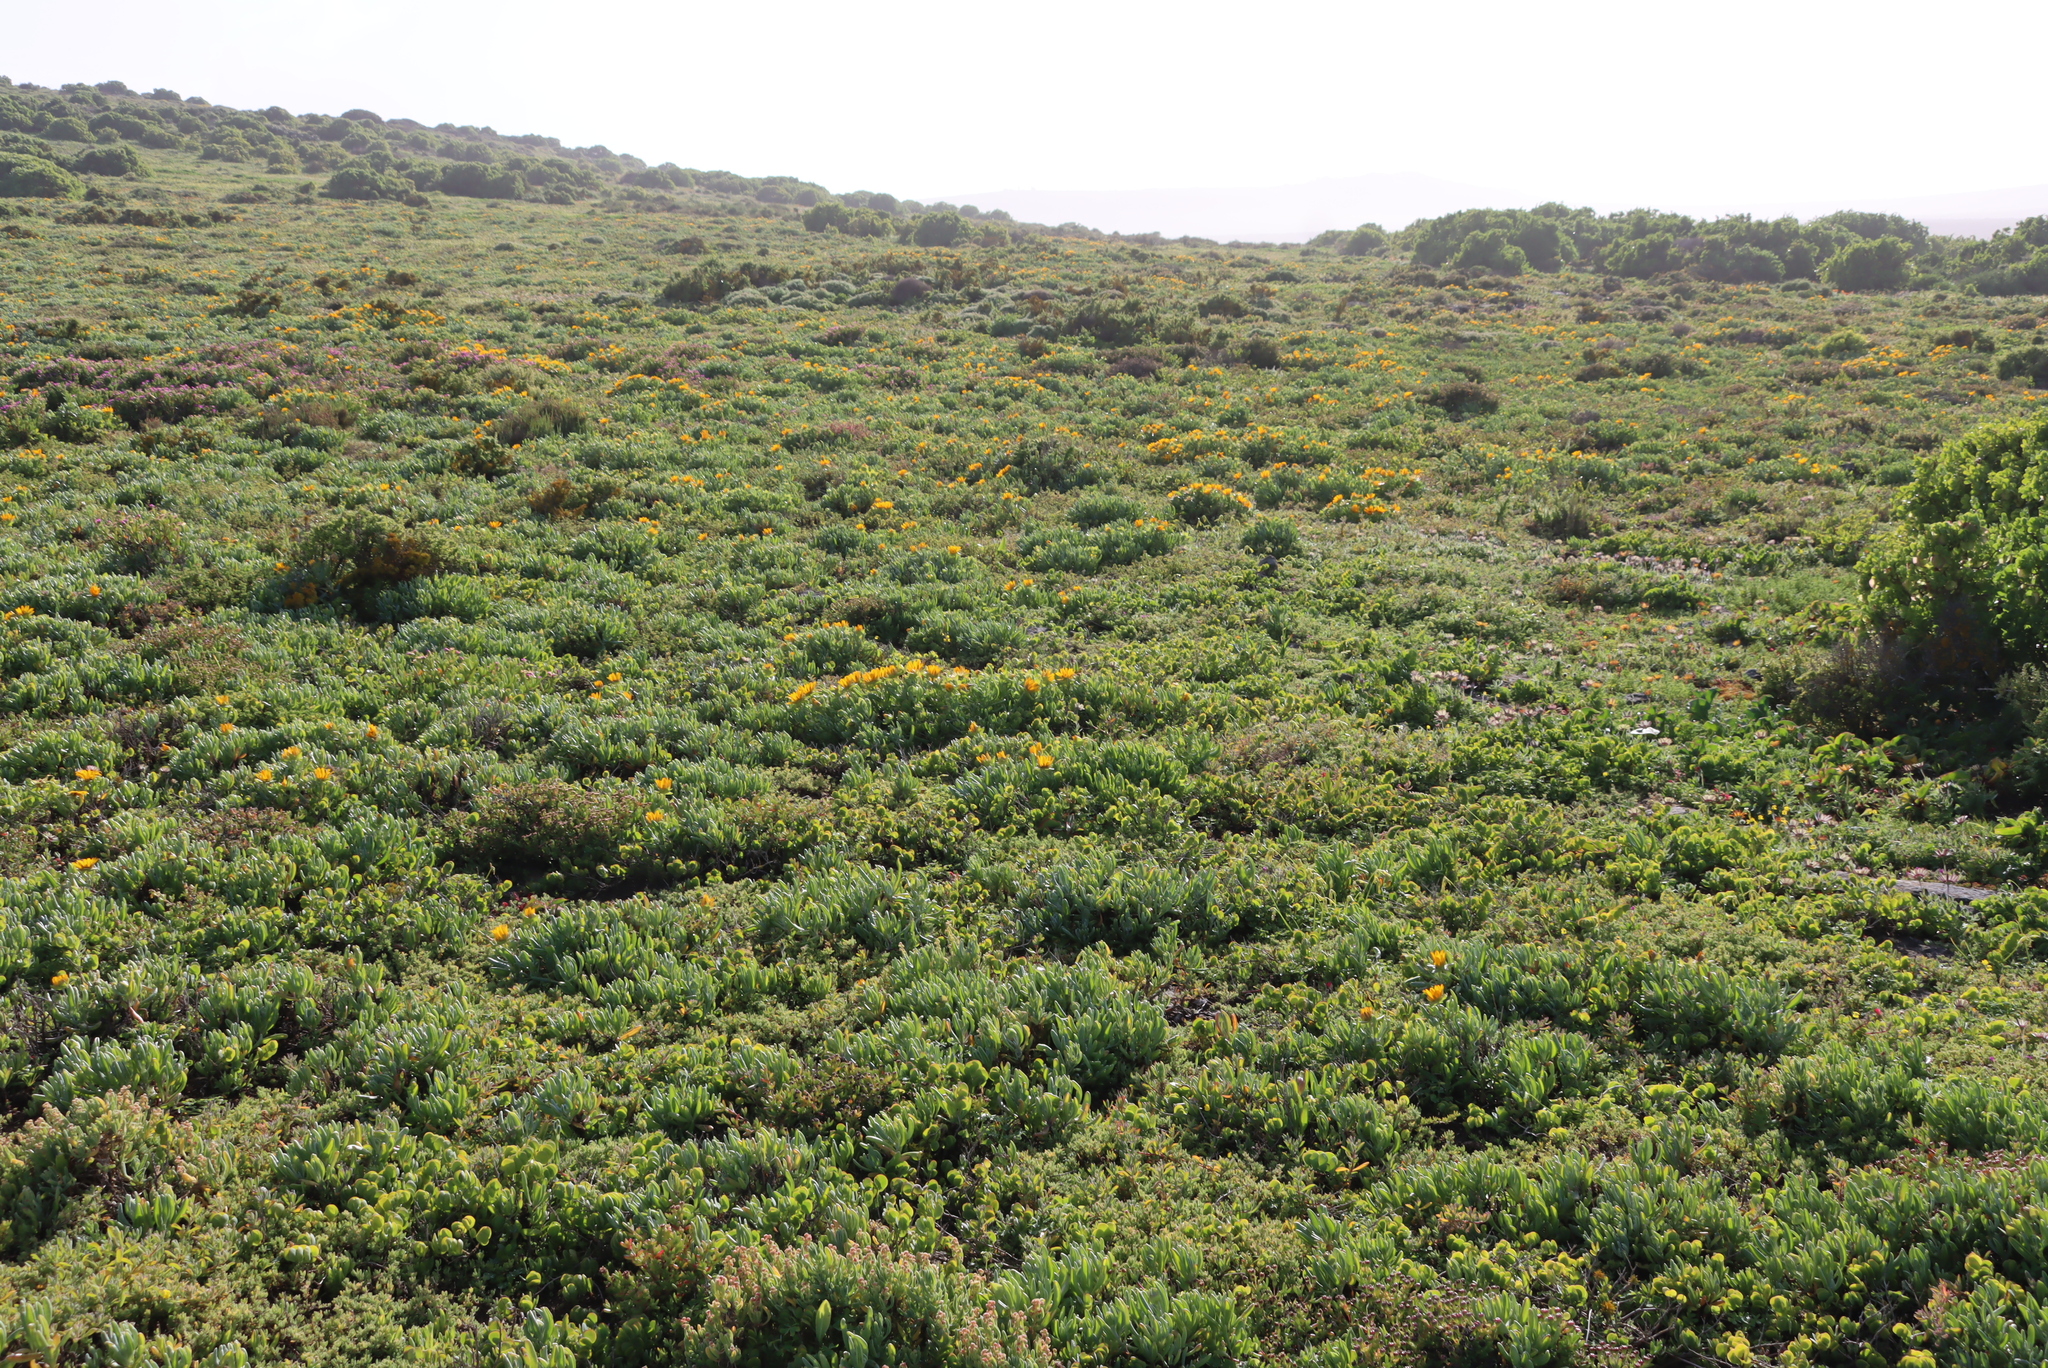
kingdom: Plantae
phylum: Tracheophyta
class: Magnoliopsida
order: Asterales
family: Asteraceae
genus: Didelta
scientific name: Didelta carnosa
